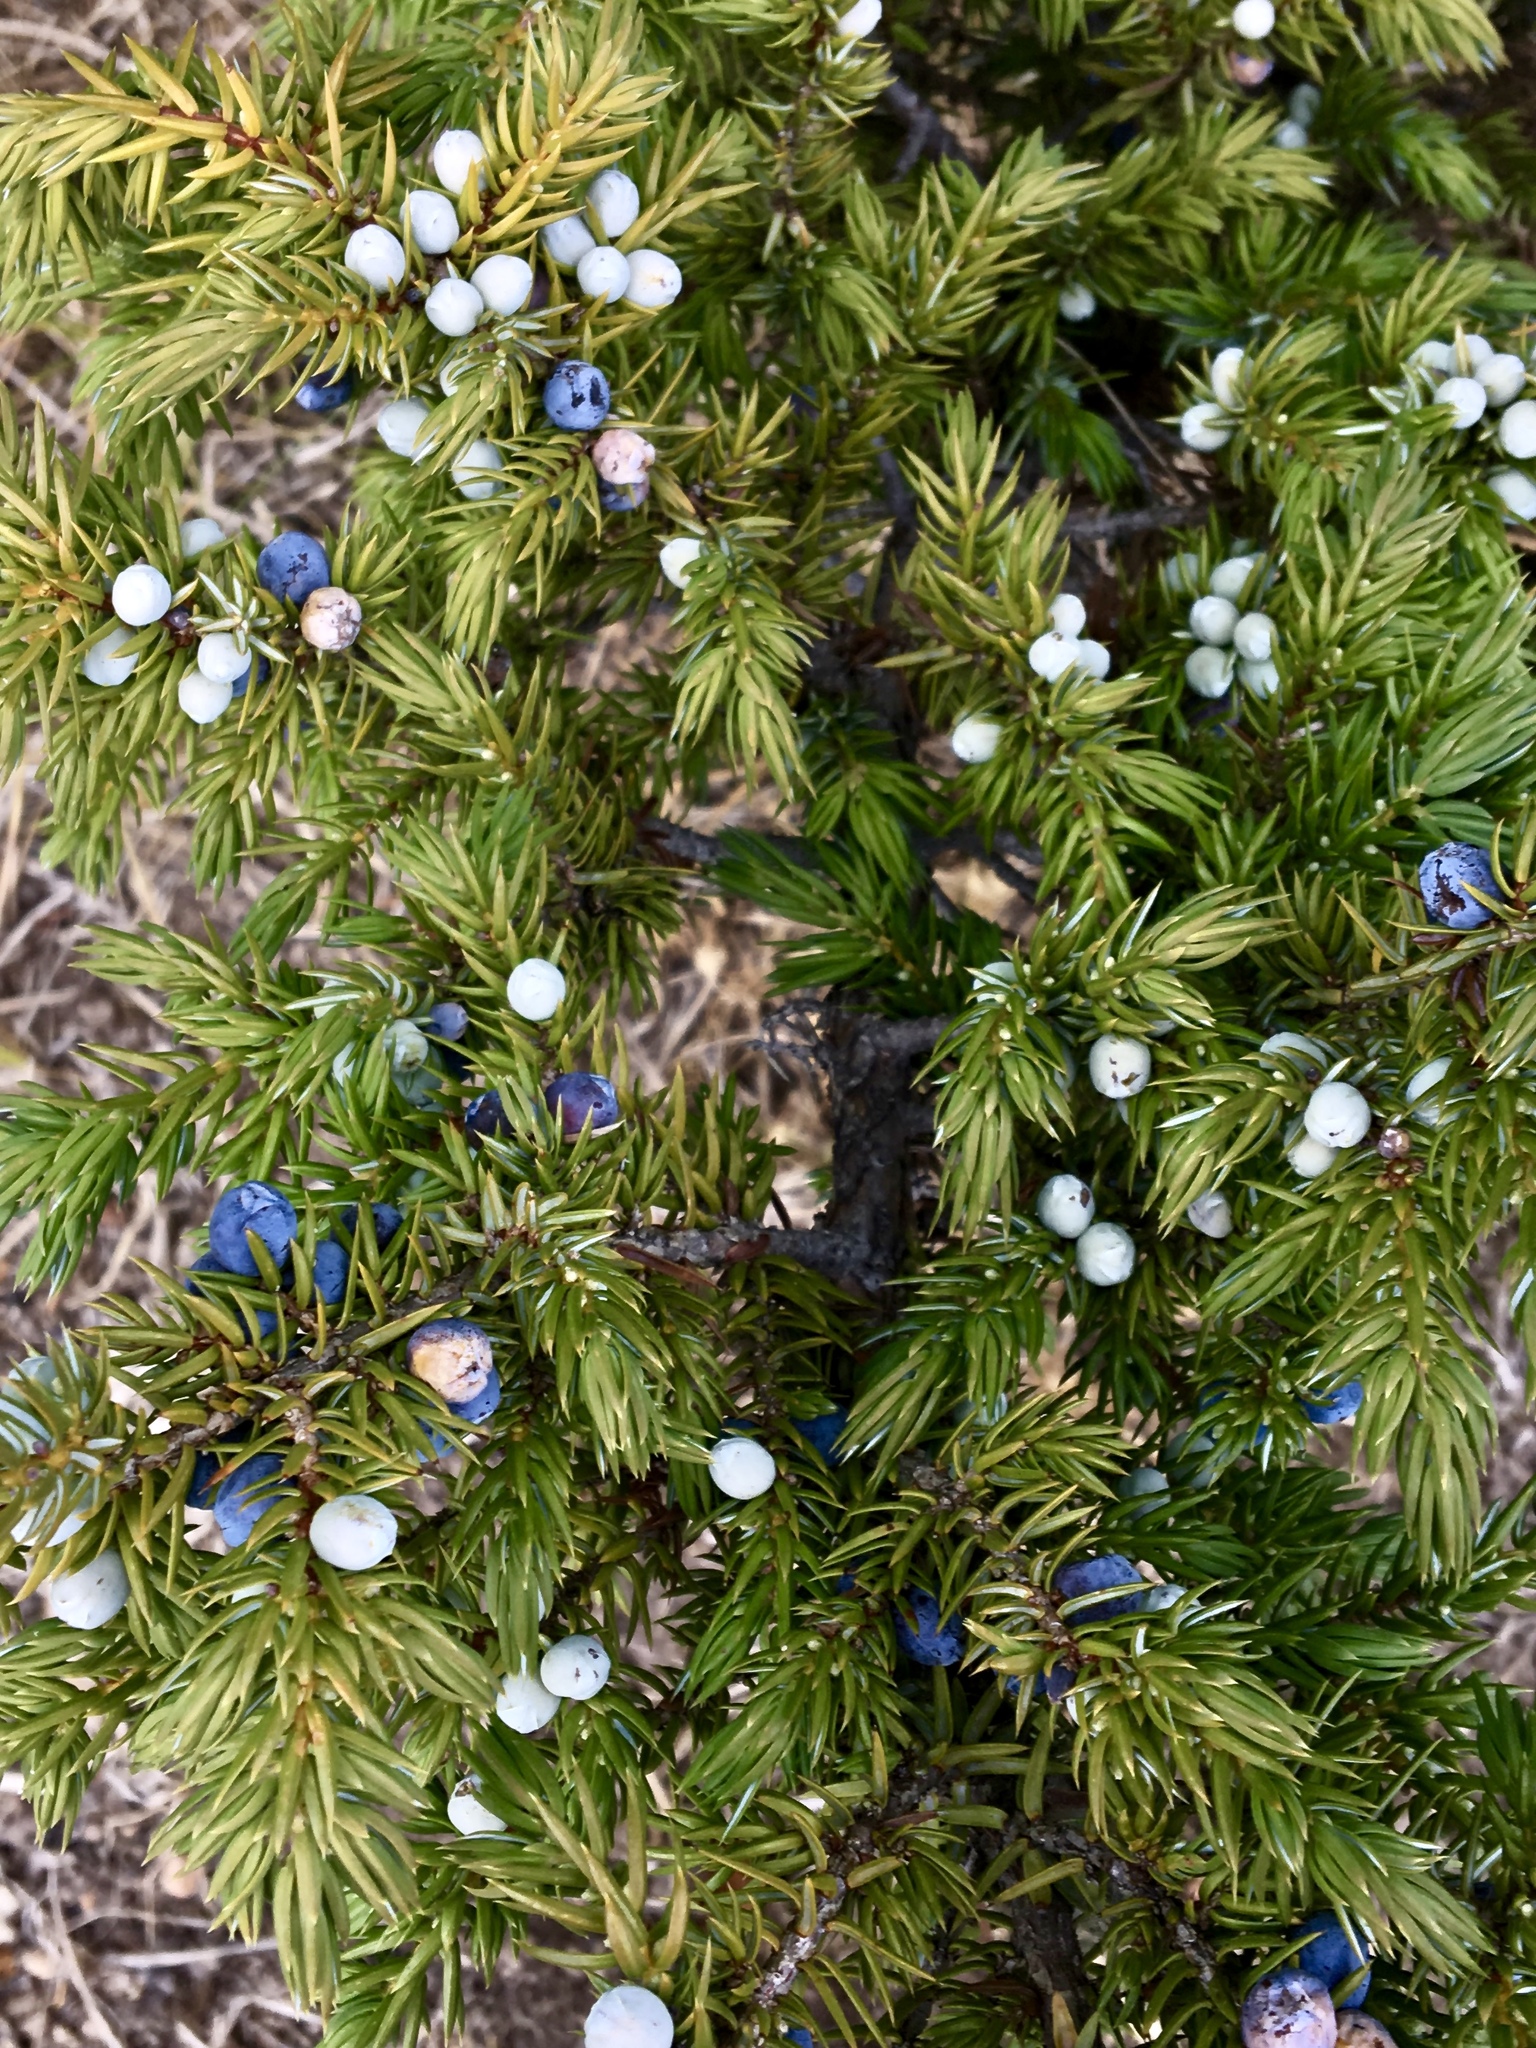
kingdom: Plantae
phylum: Tracheophyta
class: Pinopsida
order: Pinales
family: Cupressaceae
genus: Juniperus
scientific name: Juniperus communis
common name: Common juniper
